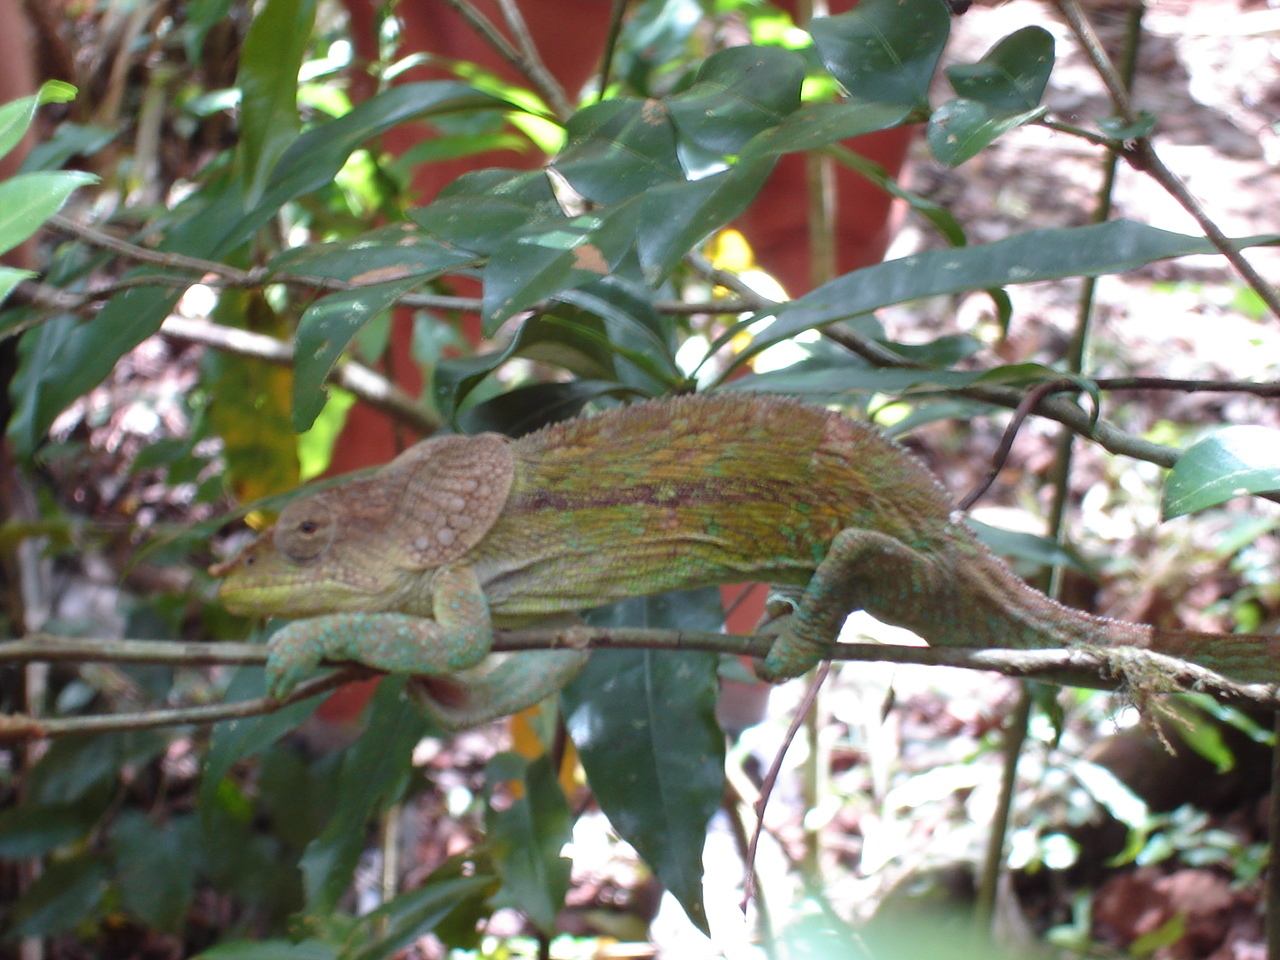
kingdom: Animalia
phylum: Chordata
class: Squamata
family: Chamaeleonidae
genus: Calumma
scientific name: Calumma amber
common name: Amber mountain chameleon
